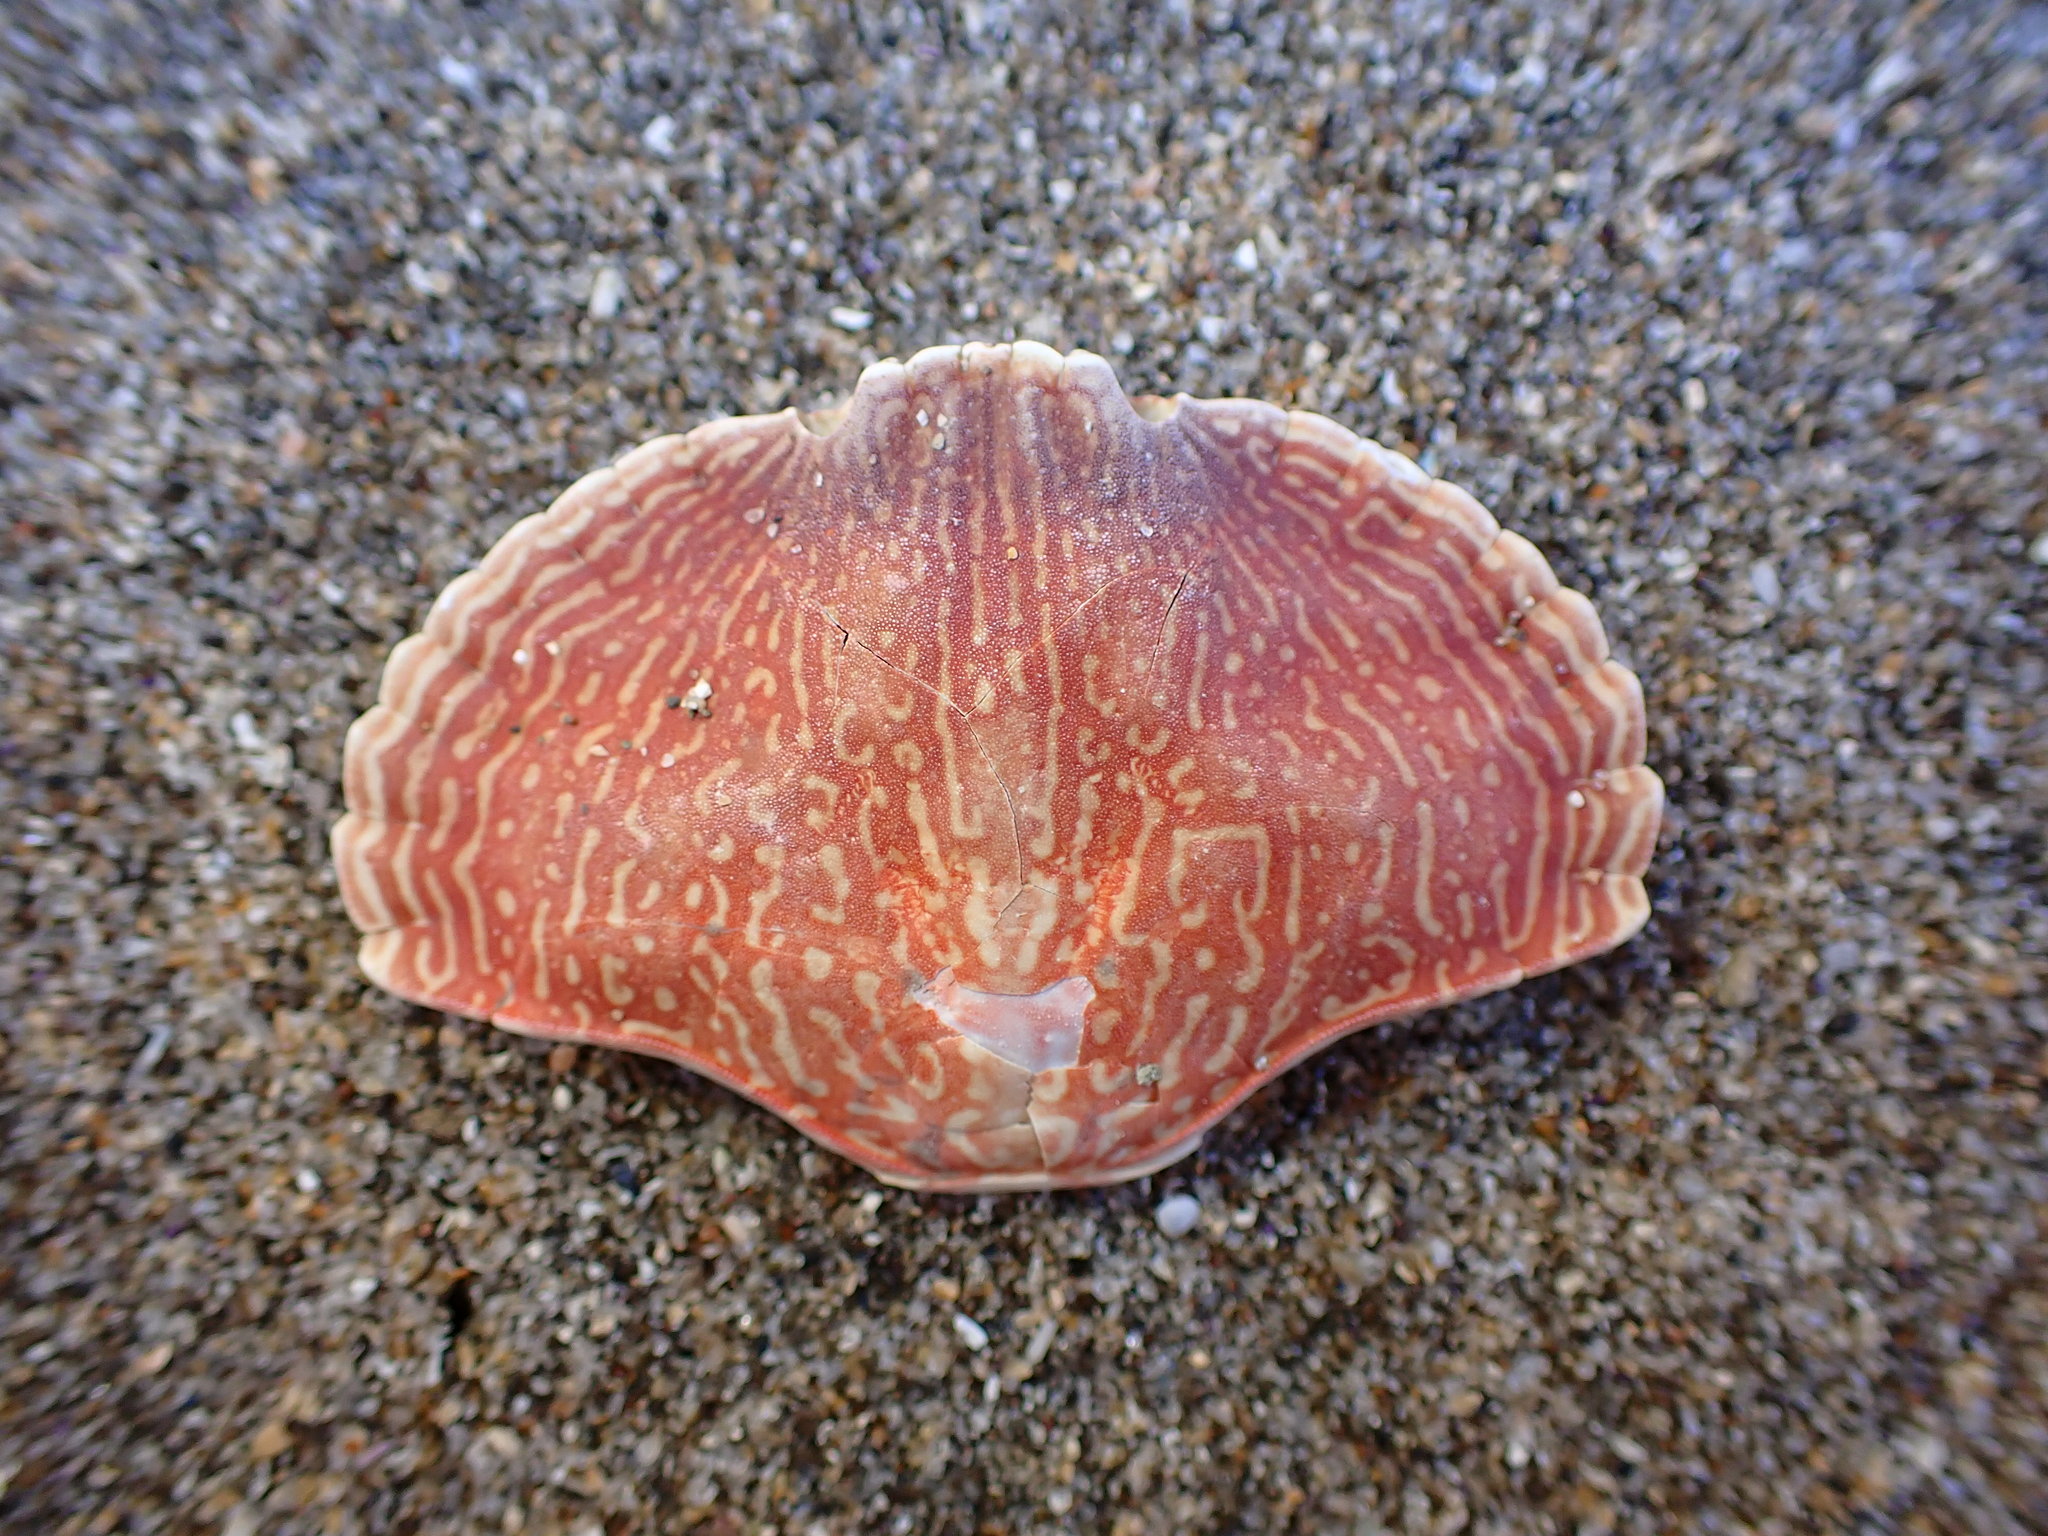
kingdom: Animalia
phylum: Arthropoda
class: Malacostraca
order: Decapoda
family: Cancridae
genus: Cancer
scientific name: Cancer productus
